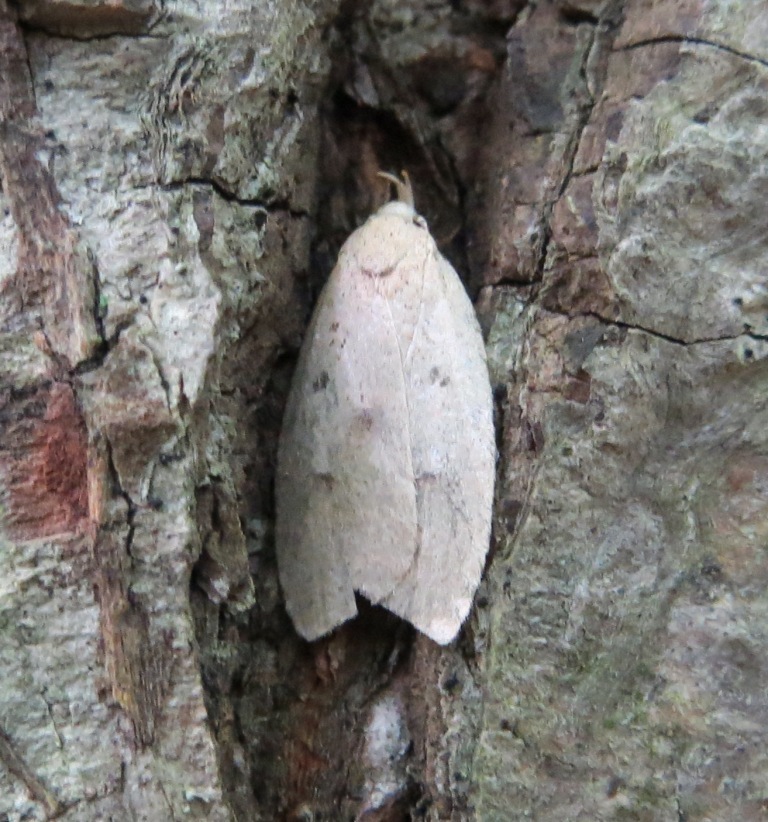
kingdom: Animalia
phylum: Arthropoda
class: Insecta
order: Lepidoptera
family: Peleopodidae
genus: Machimia
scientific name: Machimia tentoriferella
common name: Gold-striped leaftier moth
